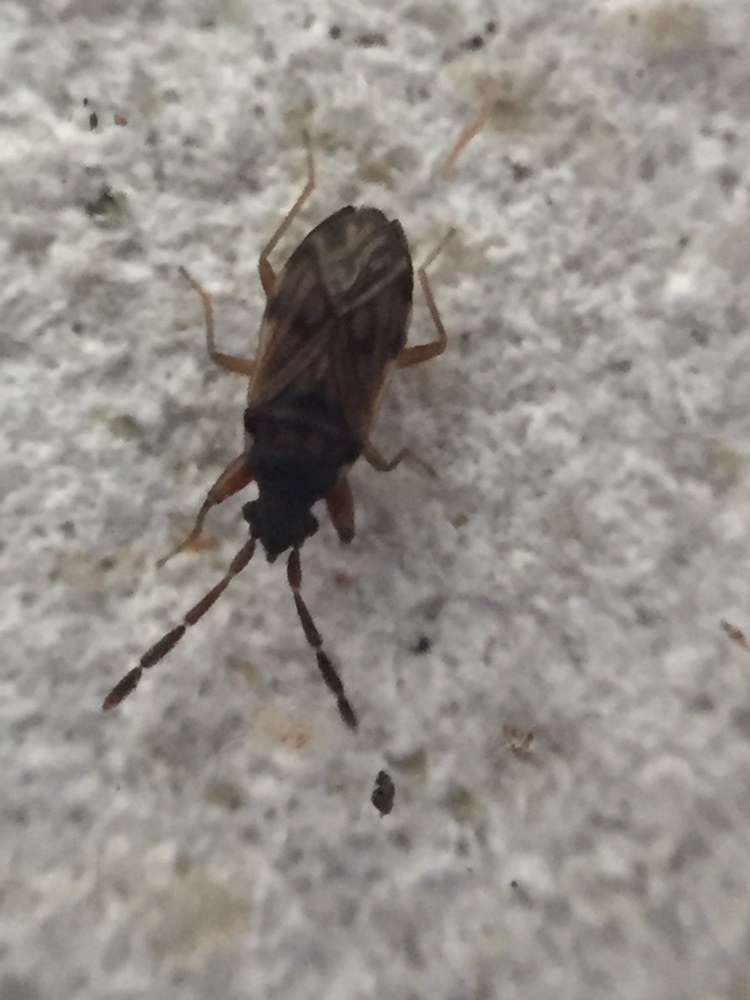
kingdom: Animalia
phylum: Arthropoda
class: Insecta
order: Hemiptera
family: Rhyparochromidae
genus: Brentiscerus
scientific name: Brentiscerus putoni
